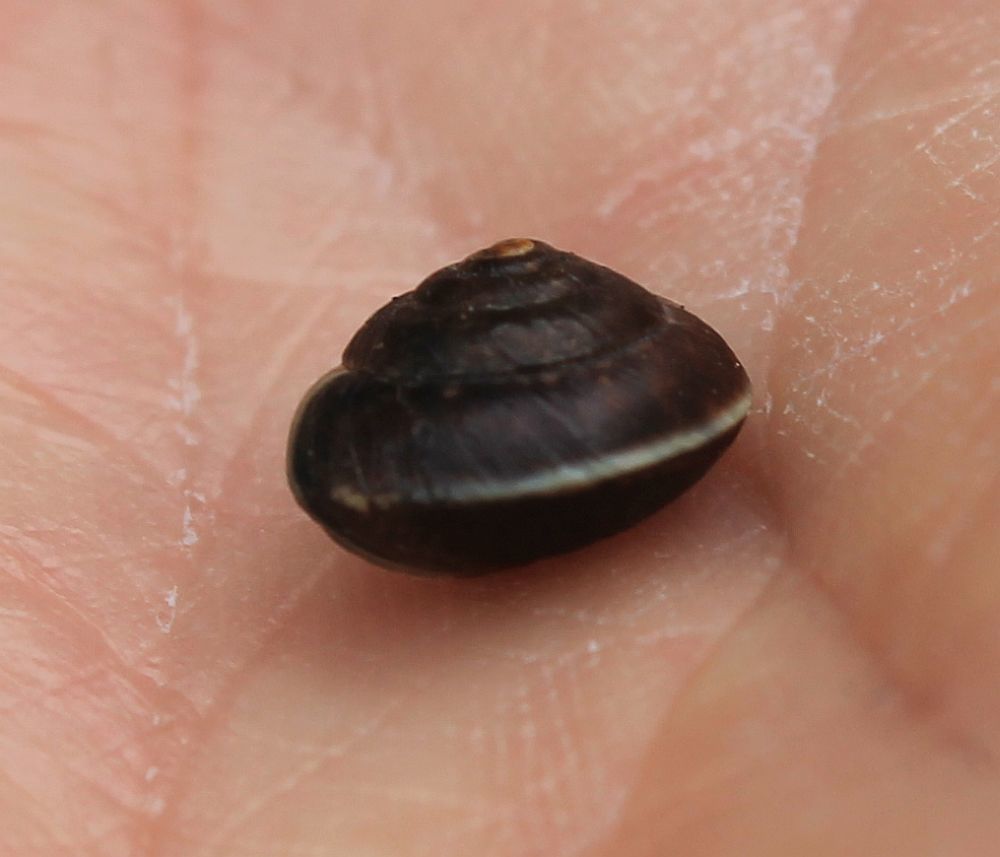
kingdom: Animalia
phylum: Mollusca
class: Gastropoda
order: Stylommatophora
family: Hygromiidae
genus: Hygromia
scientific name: Hygromia cinctella
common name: Girdled snail
